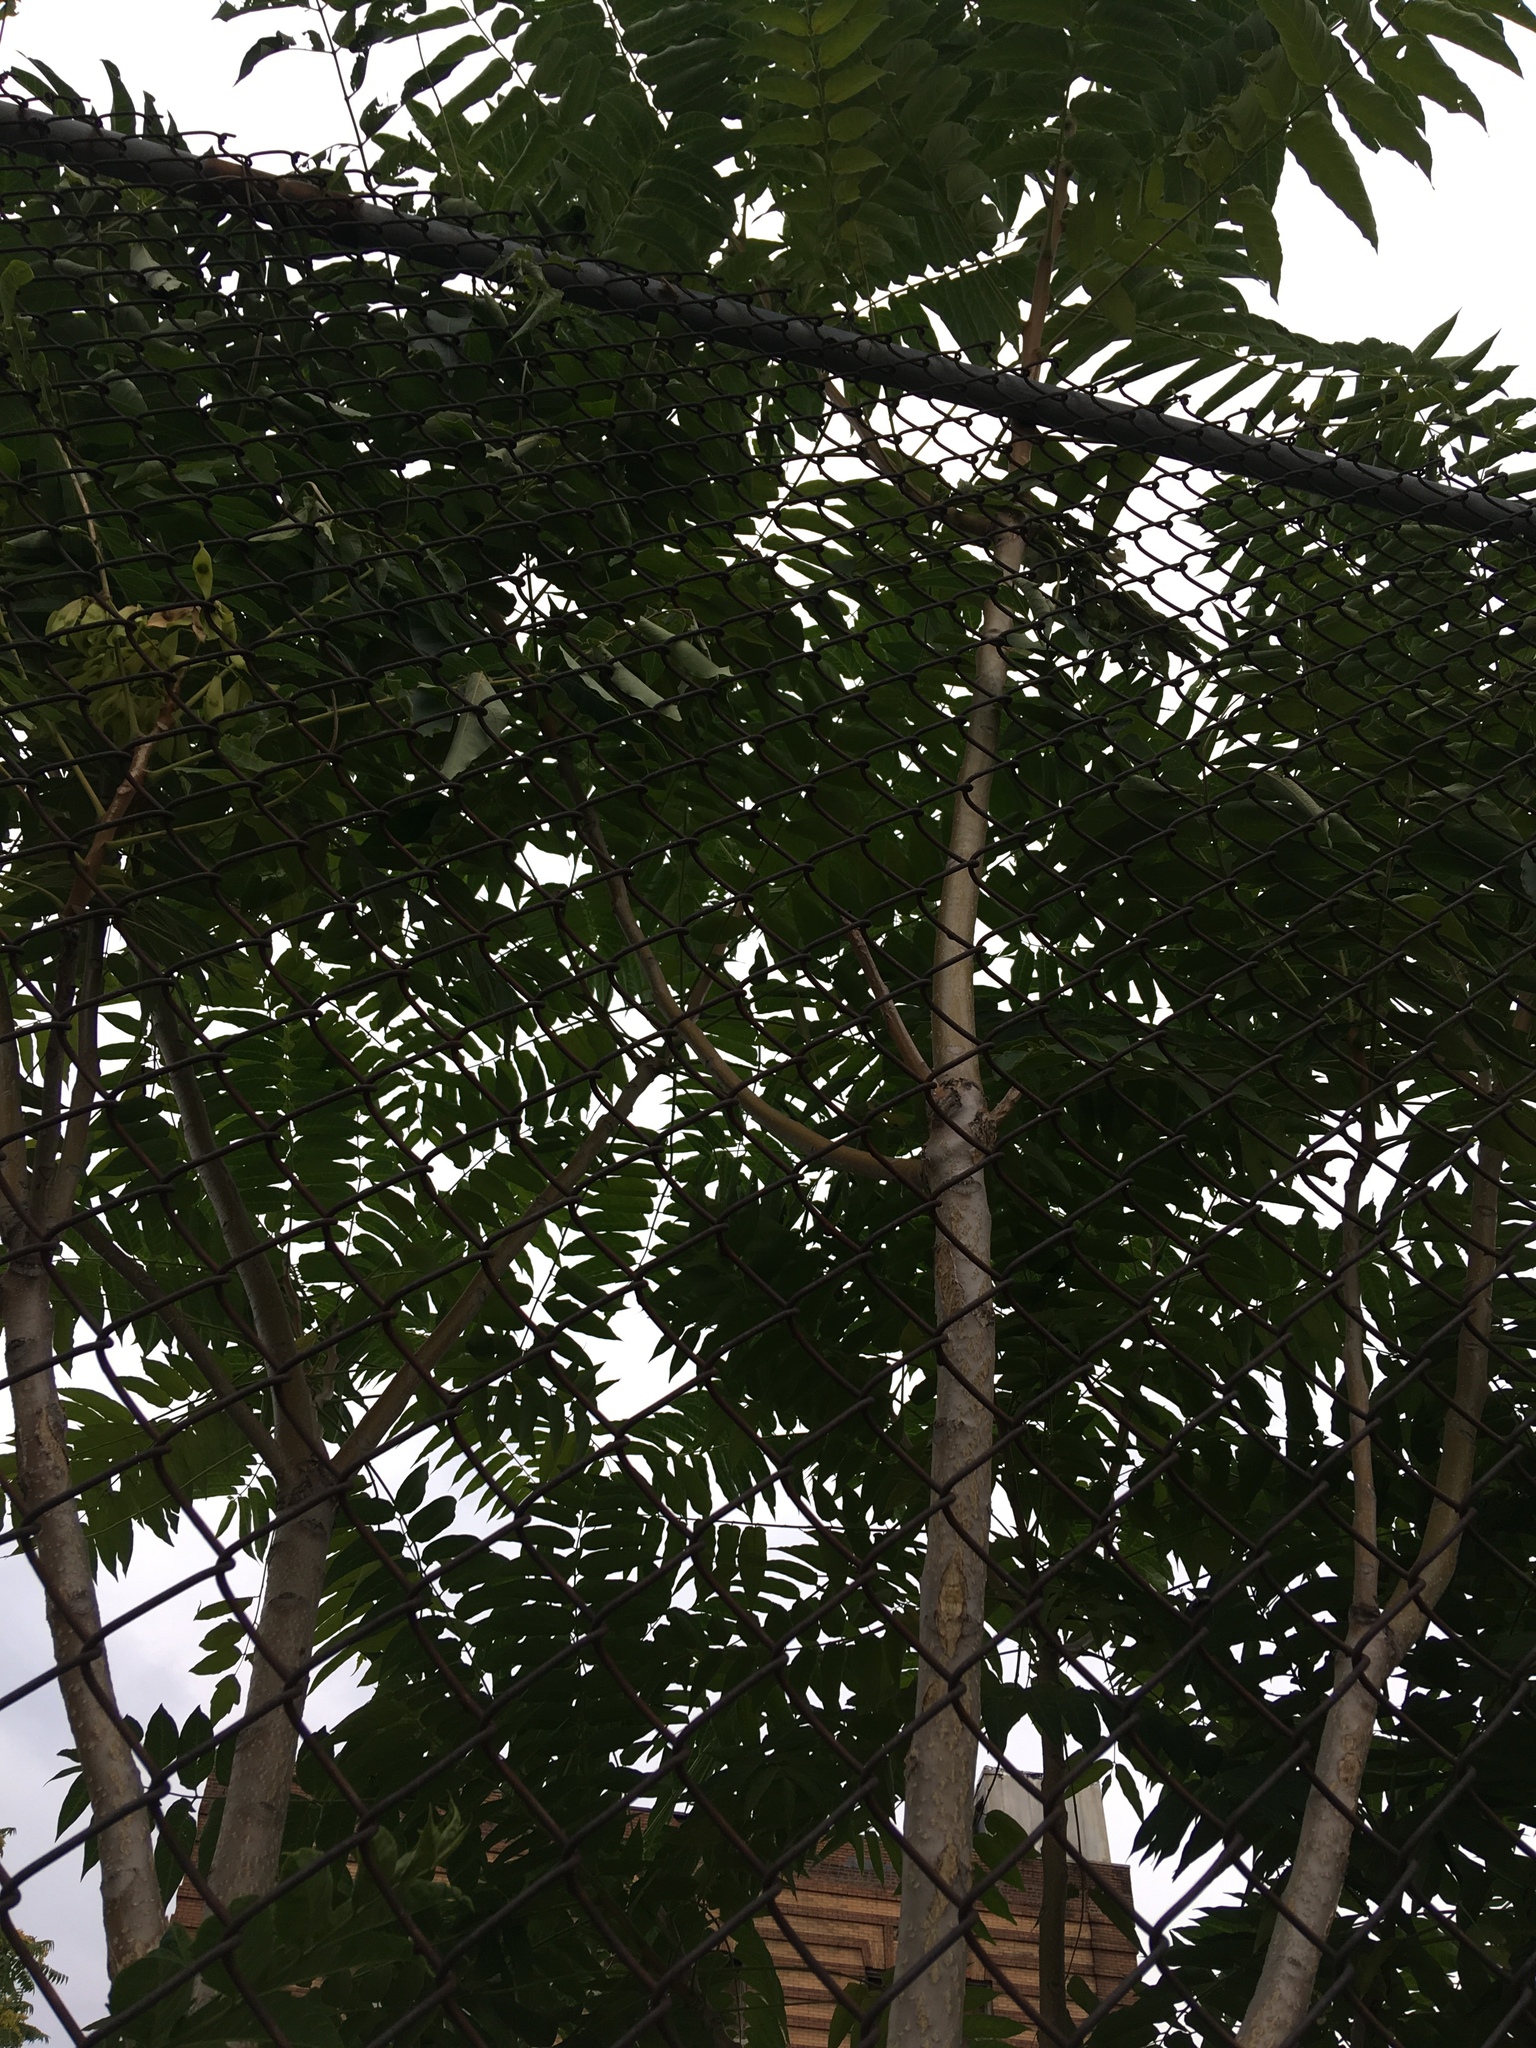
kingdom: Plantae
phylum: Tracheophyta
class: Magnoliopsida
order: Sapindales
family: Simaroubaceae
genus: Ailanthus
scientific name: Ailanthus altissima
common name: Tree-of-heaven
